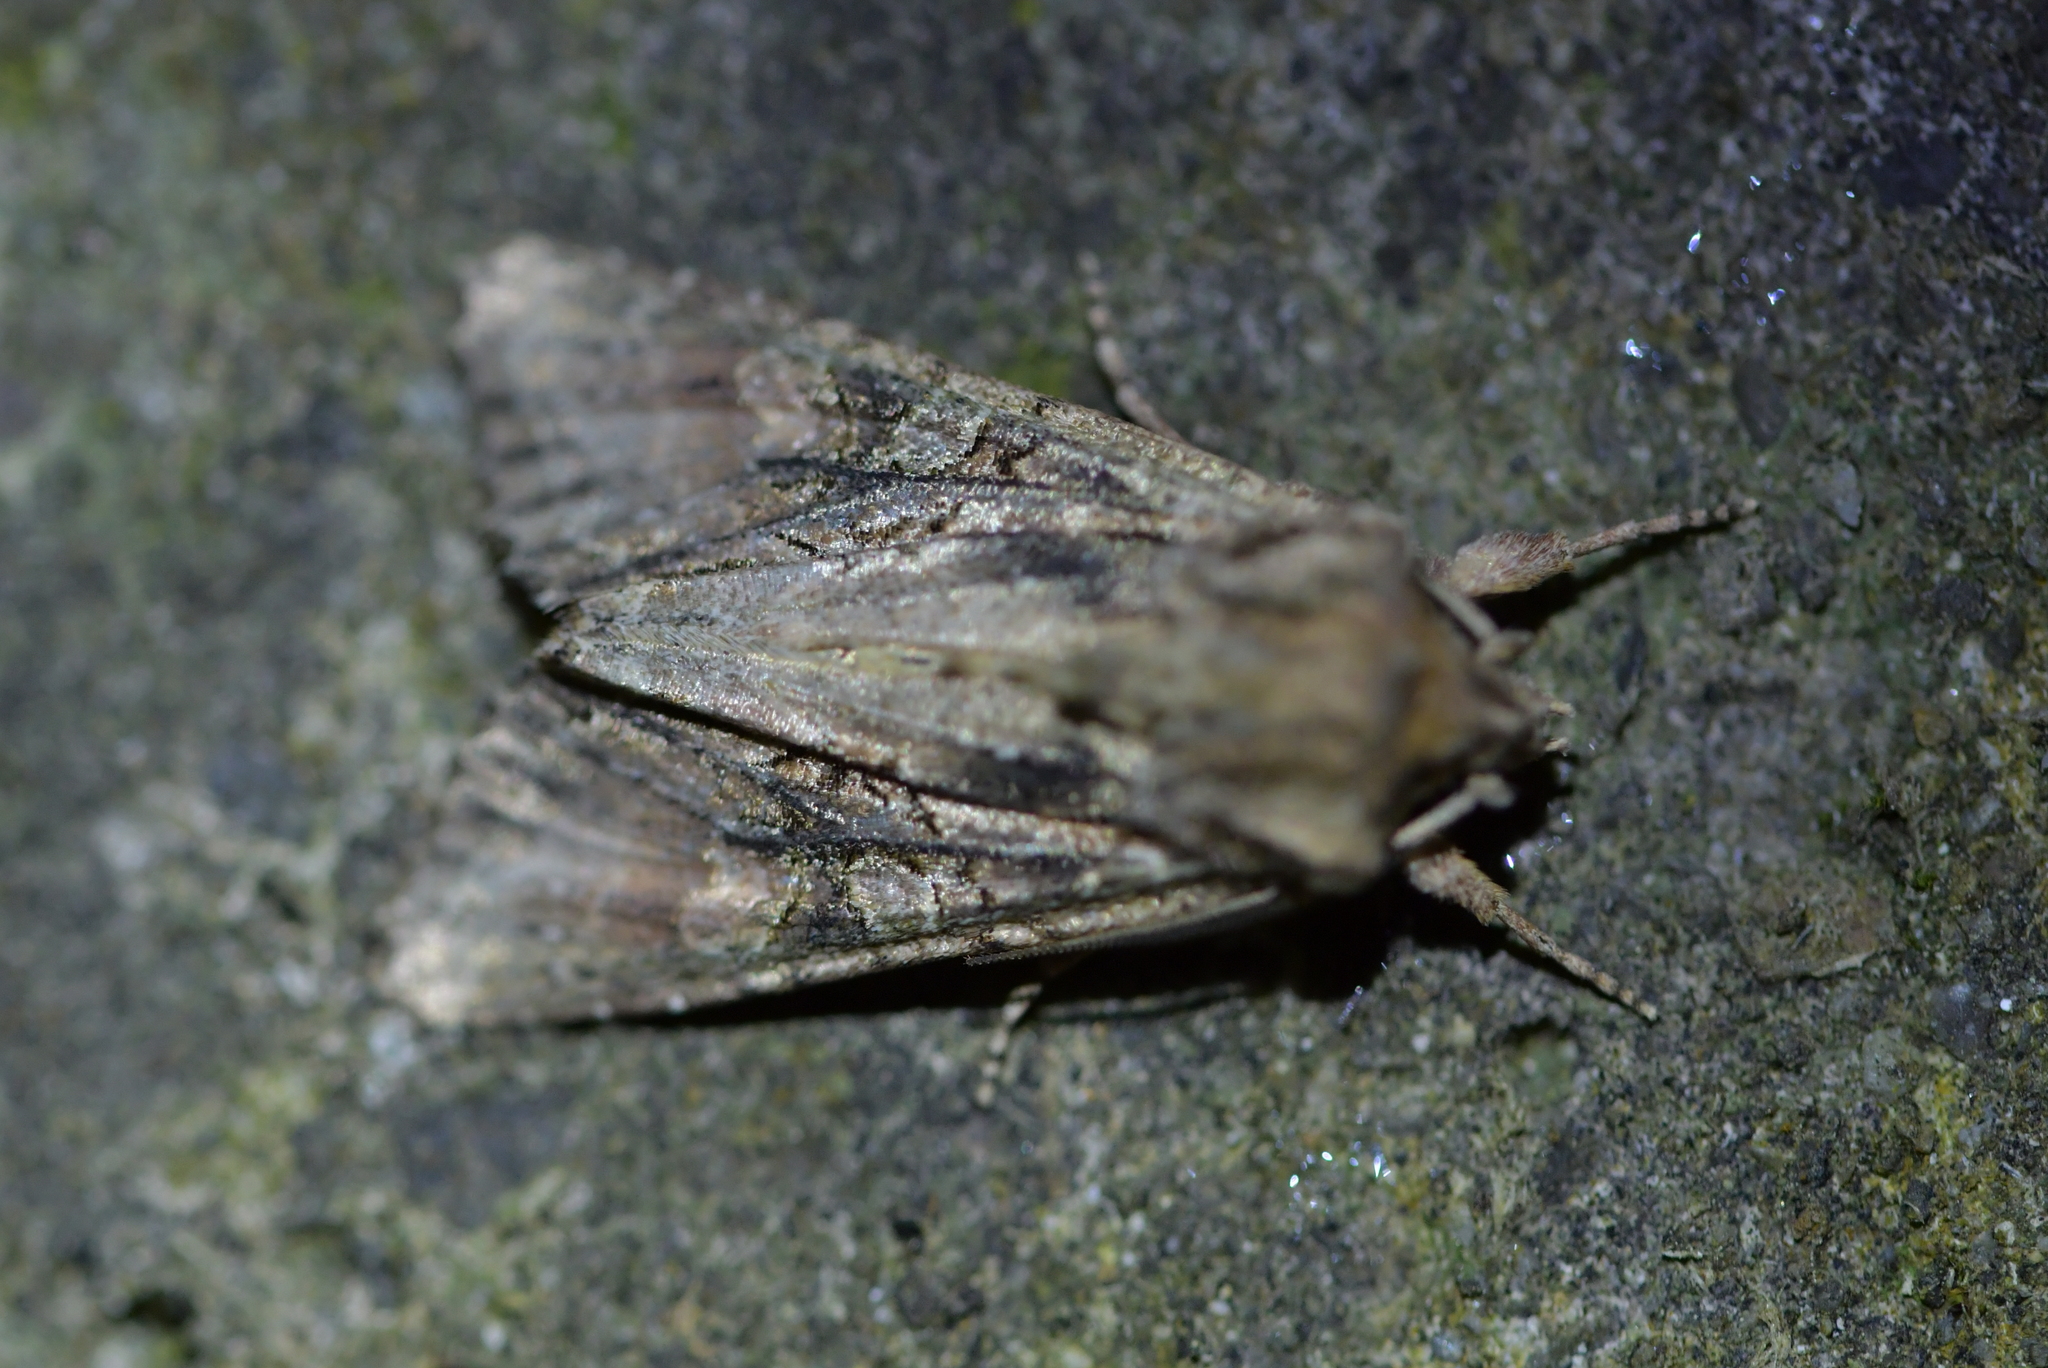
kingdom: Animalia
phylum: Arthropoda
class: Insecta
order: Lepidoptera
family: Noctuidae
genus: Ichneutica
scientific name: Ichneutica mutans
